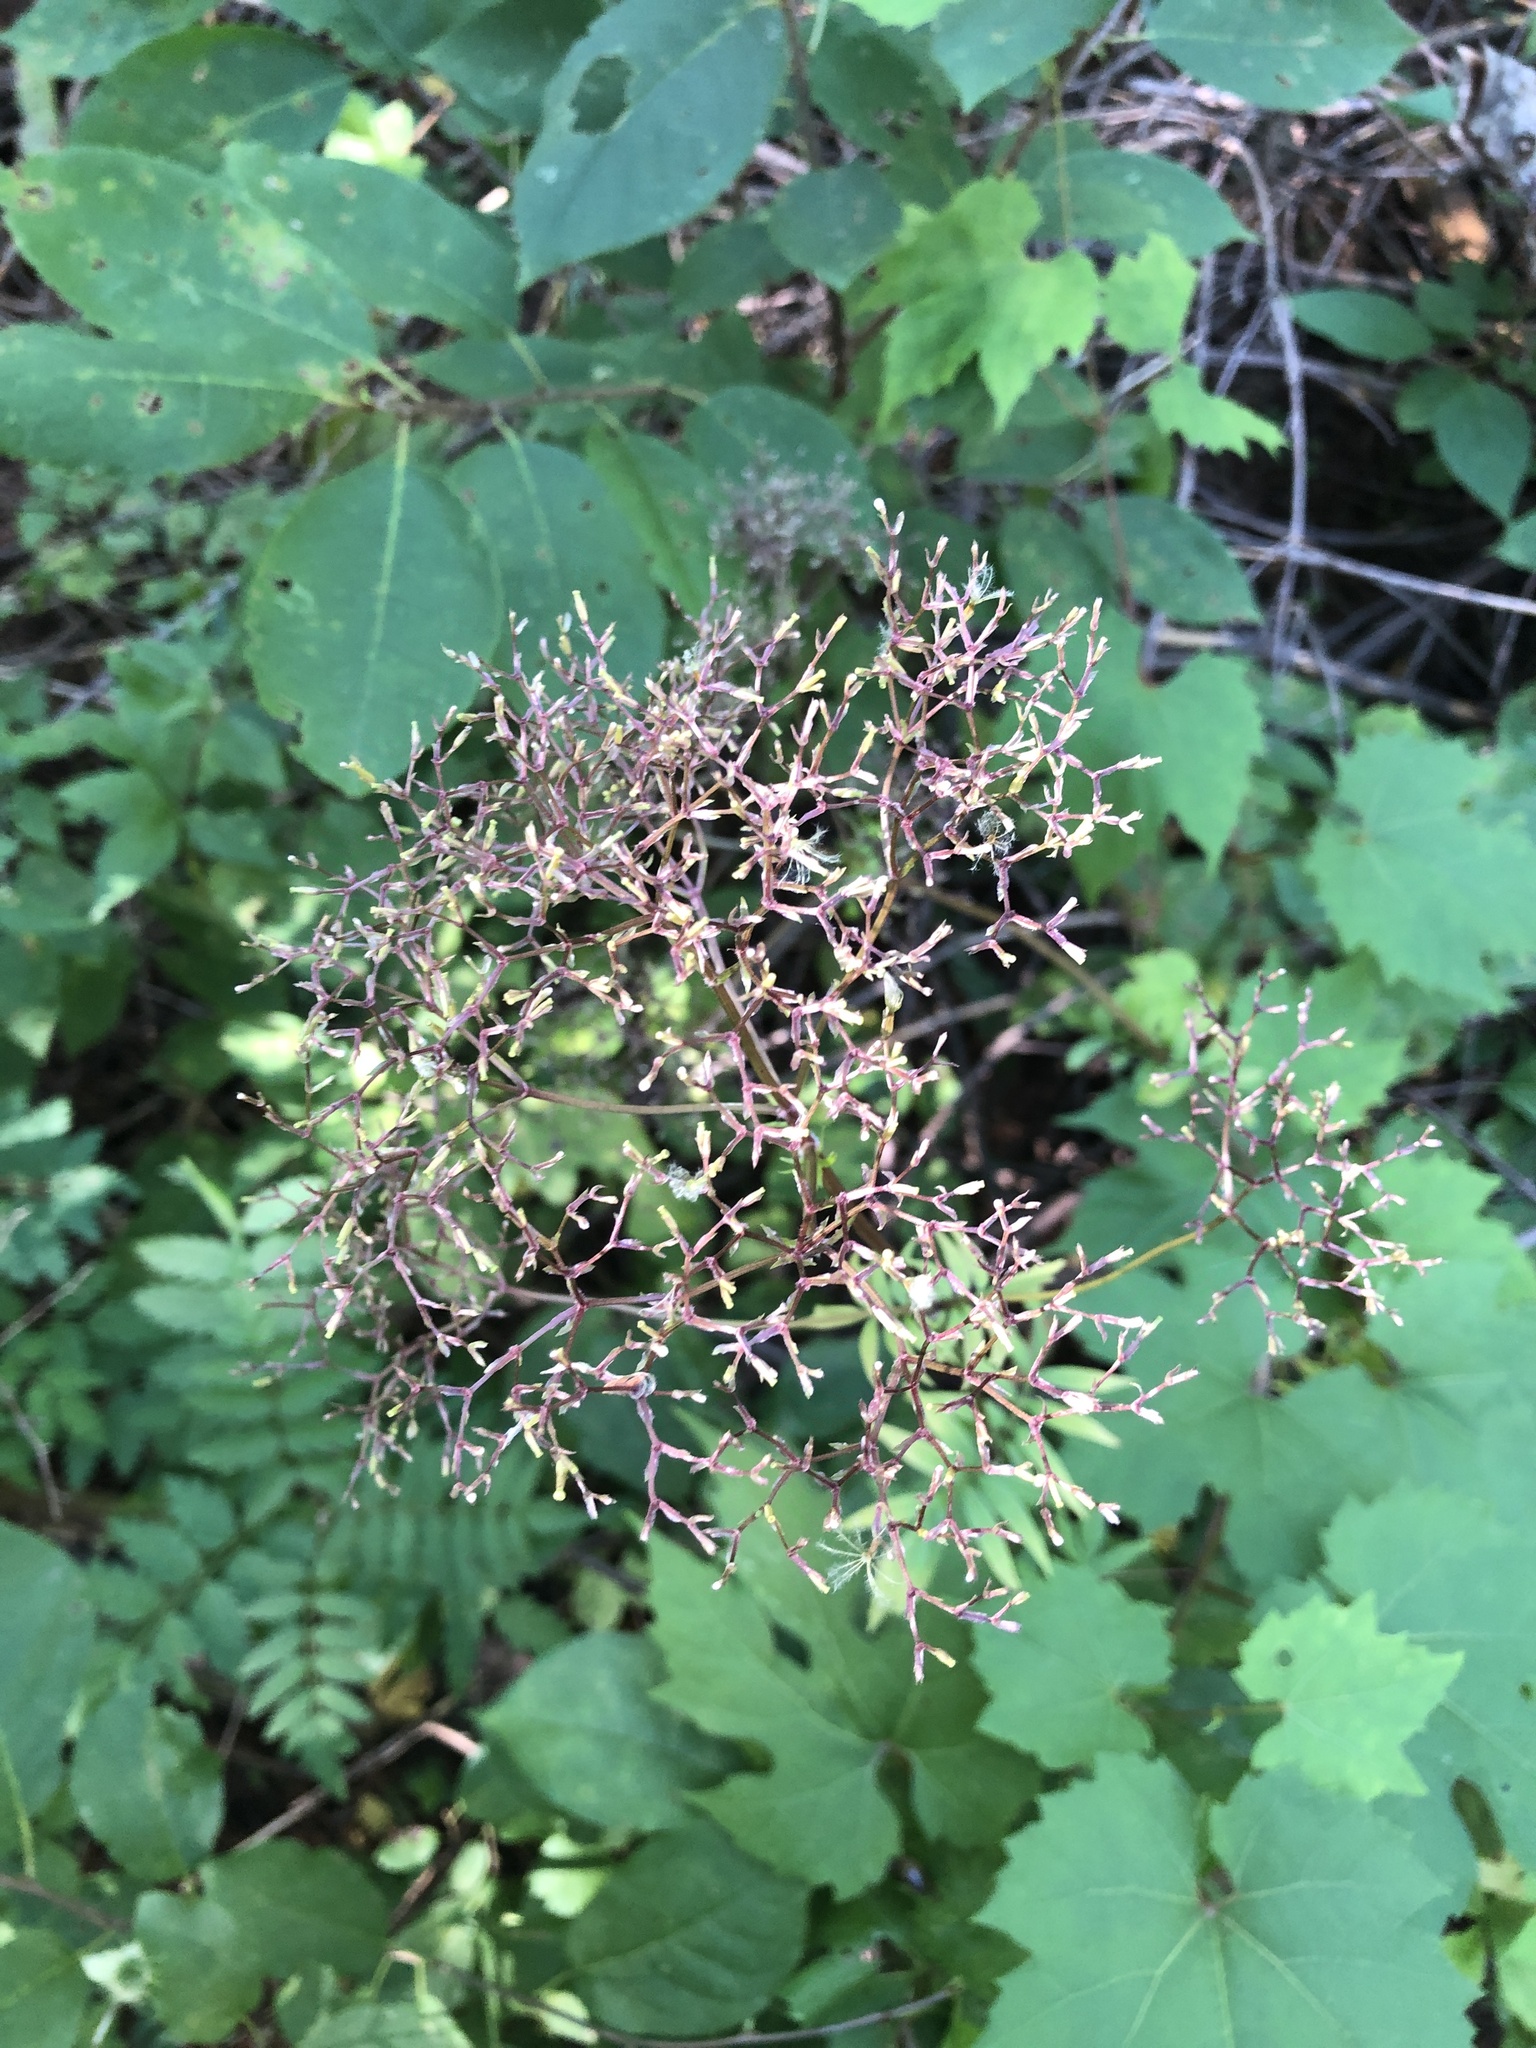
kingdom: Plantae
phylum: Tracheophyta
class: Magnoliopsida
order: Dipsacales
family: Caprifoliaceae
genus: Valeriana
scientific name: Valeriana officinalis
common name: Common valerian
